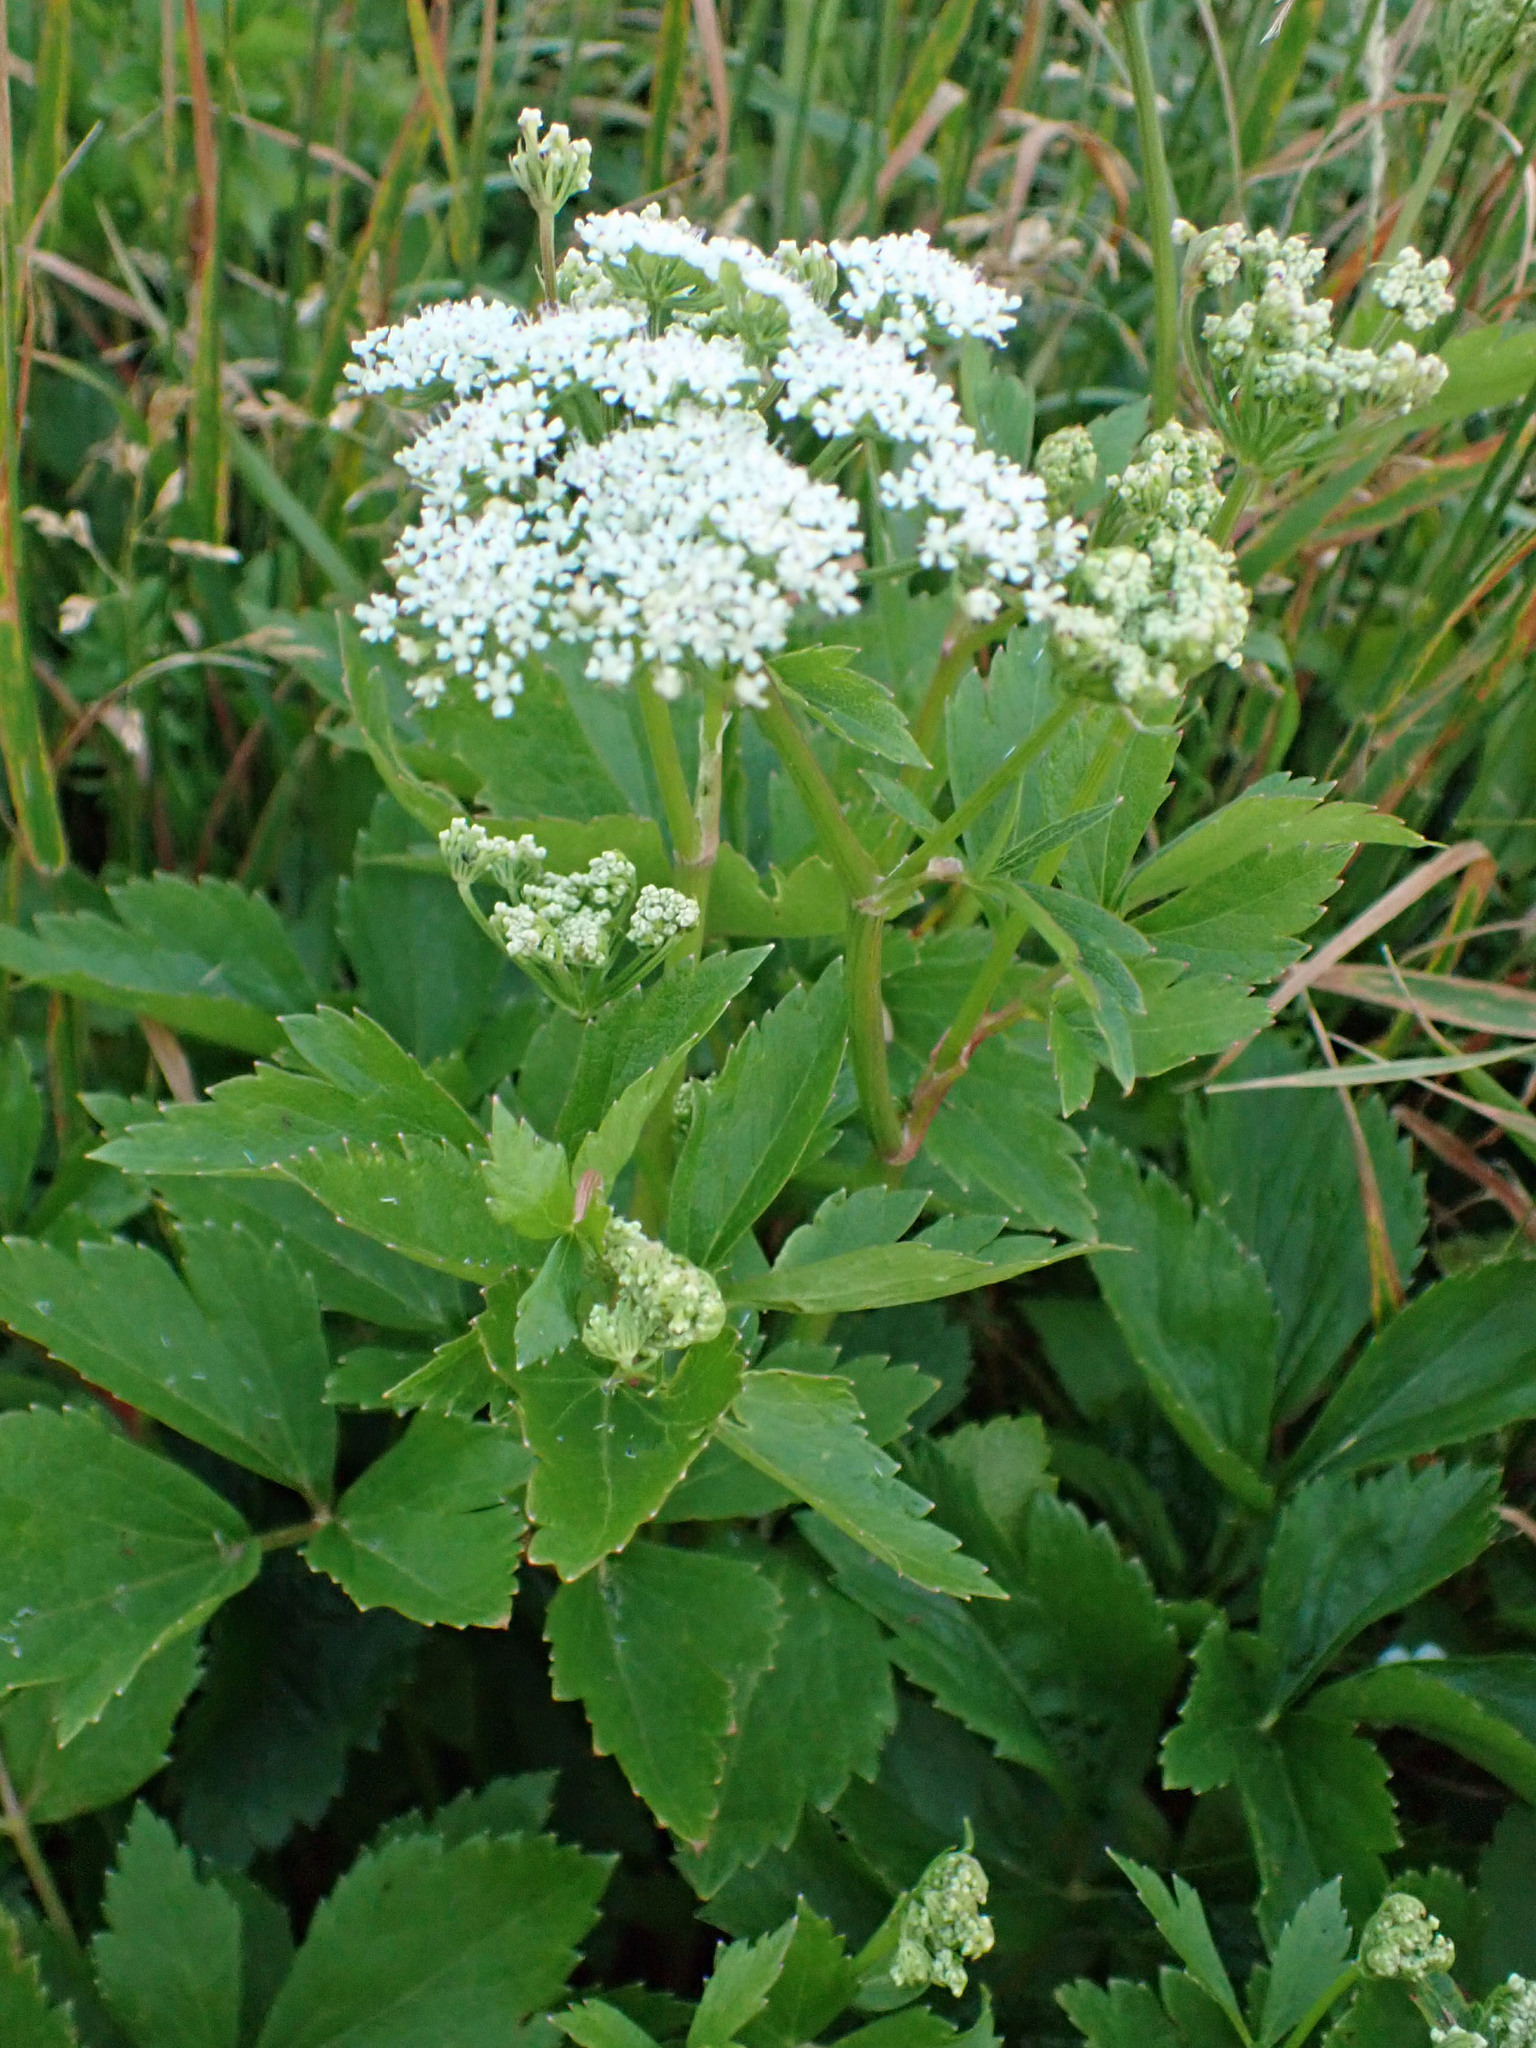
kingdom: Plantae
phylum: Tracheophyta
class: Magnoliopsida
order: Apiales
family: Apiaceae
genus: Ligusticum
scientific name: Ligusticum scothicum
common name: Beach lovage
